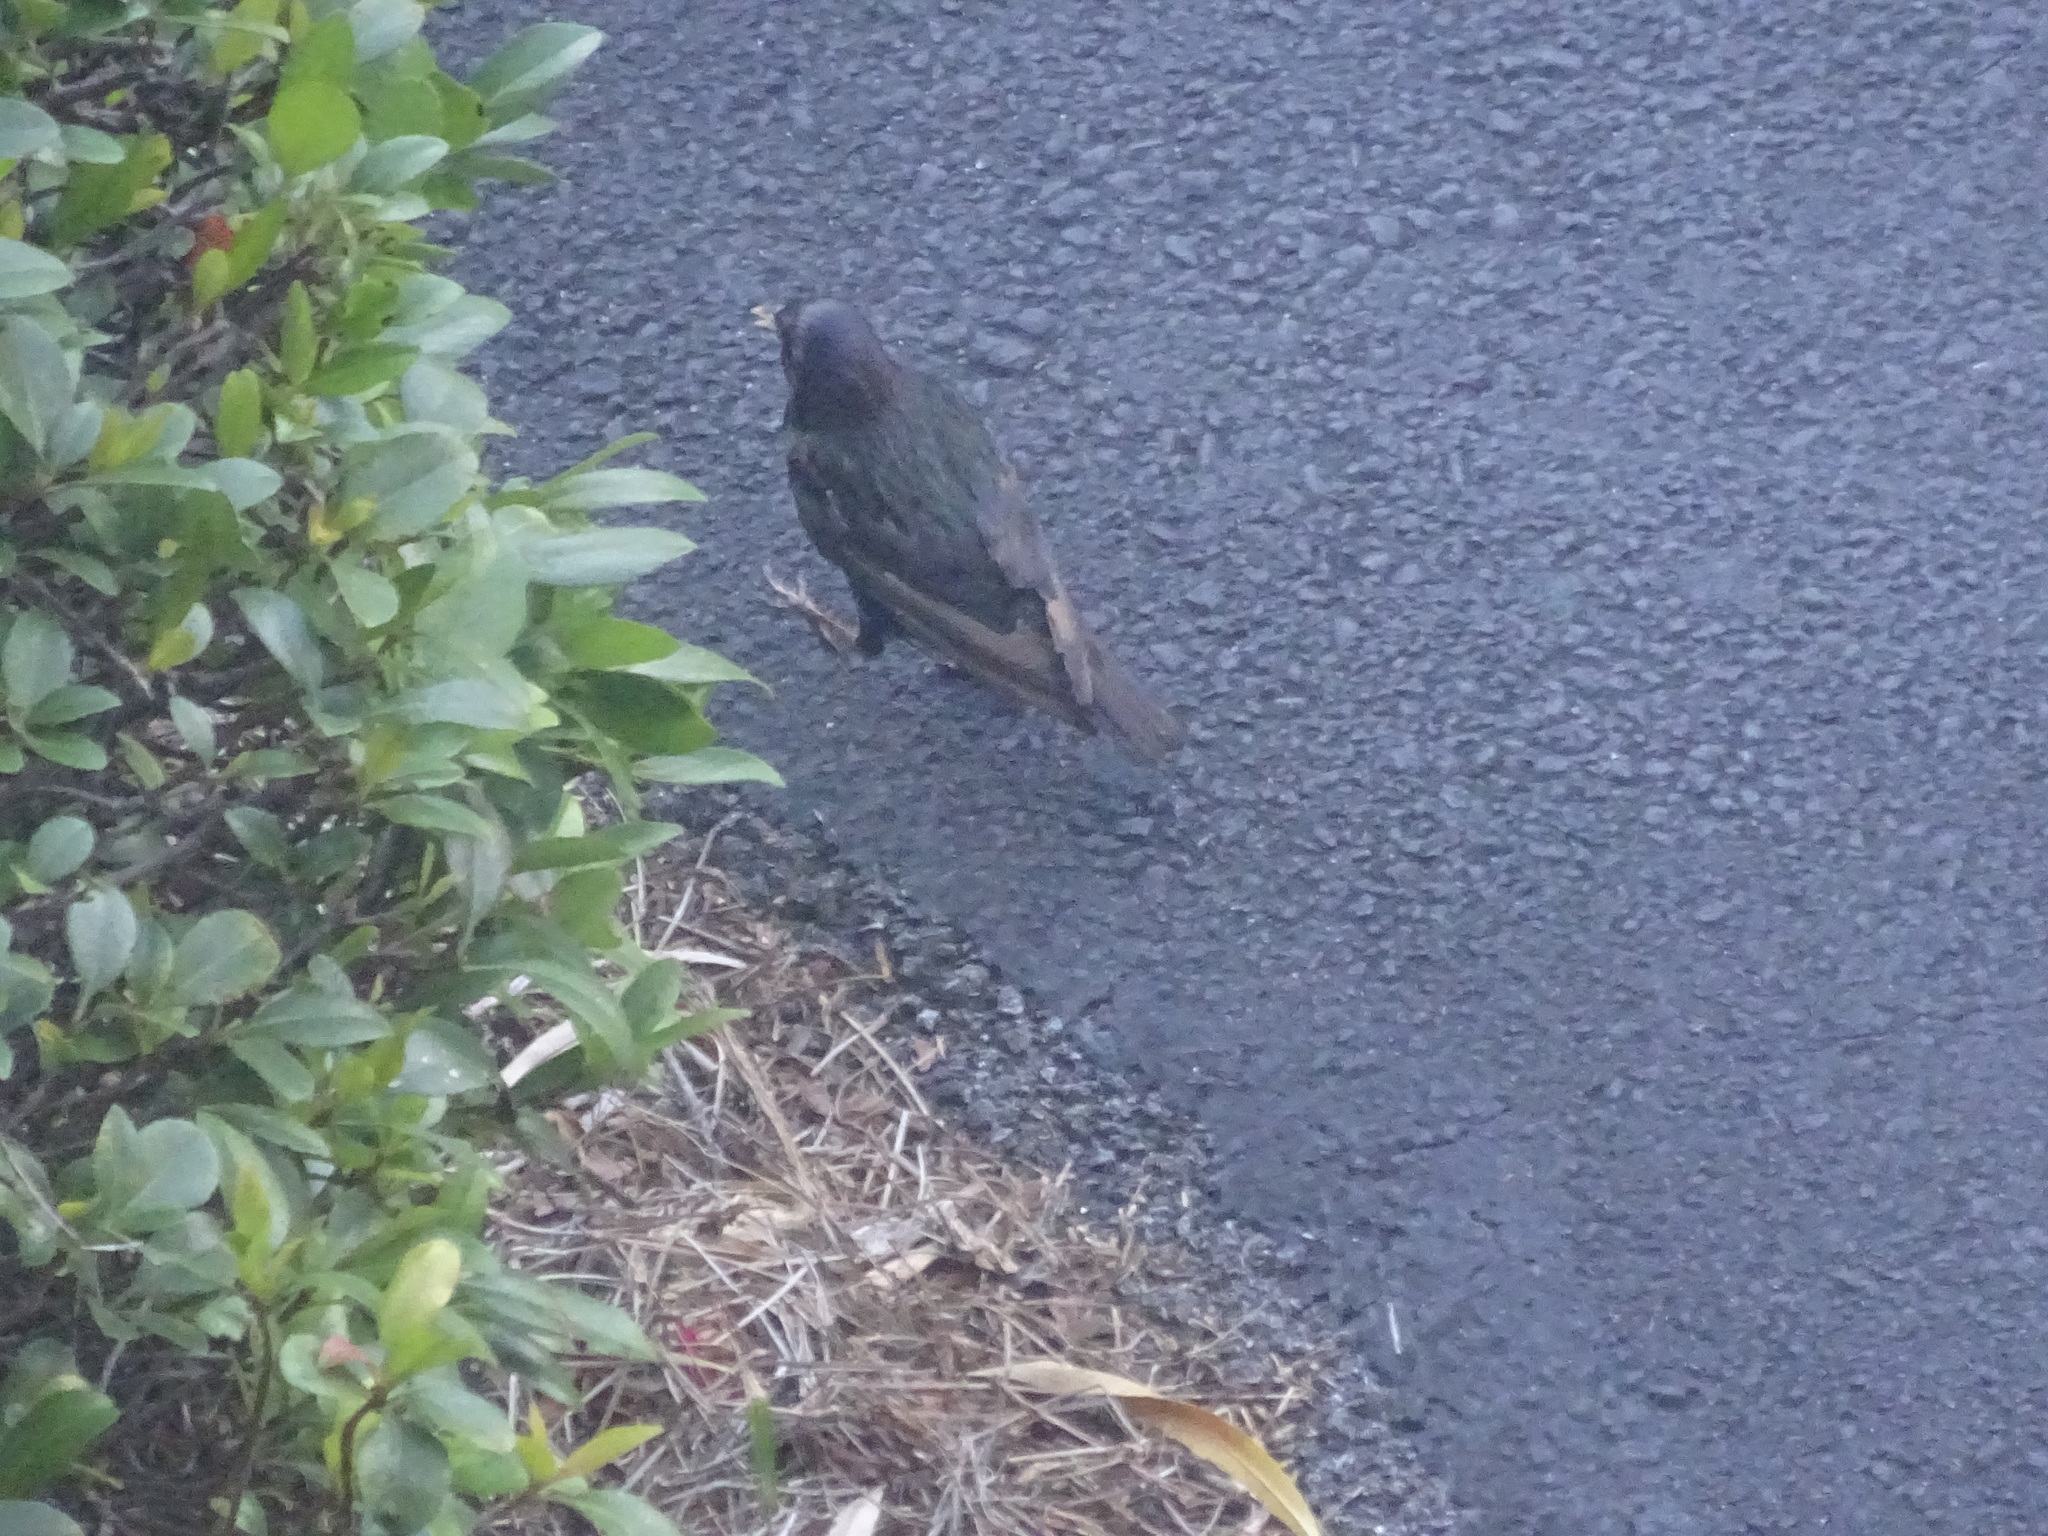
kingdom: Animalia
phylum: Chordata
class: Aves
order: Passeriformes
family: Sturnidae
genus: Sturnus
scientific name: Sturnus vulgaris
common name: Common starling
